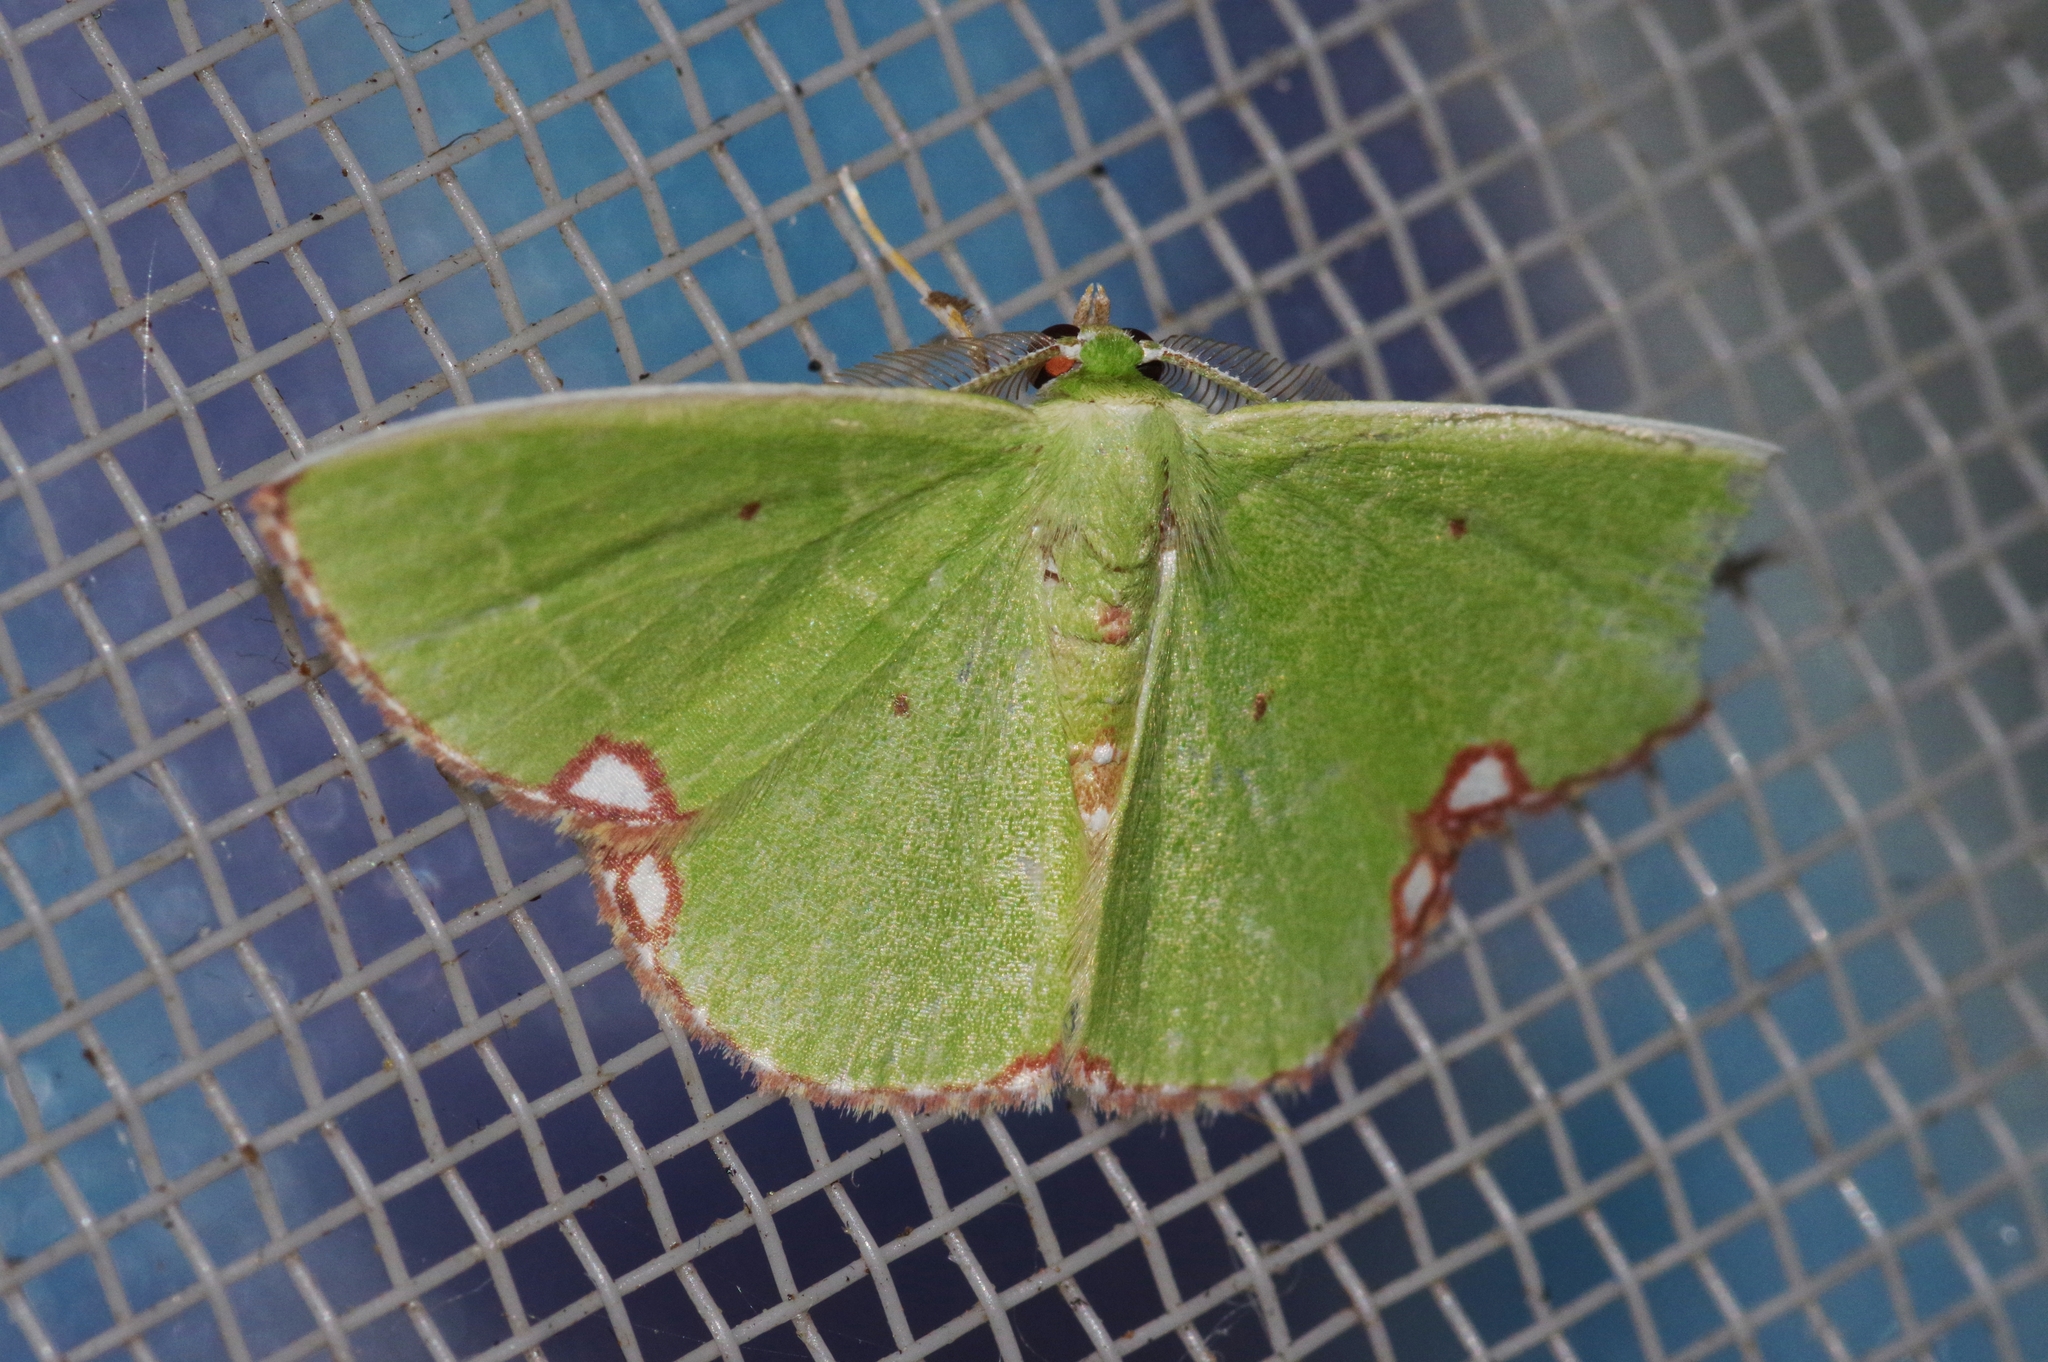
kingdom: Animalia
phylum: Arthropoda
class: Insecta
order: Lepidoptera
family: Geometridae
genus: Comibaena
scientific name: Comibaena procumbaria
